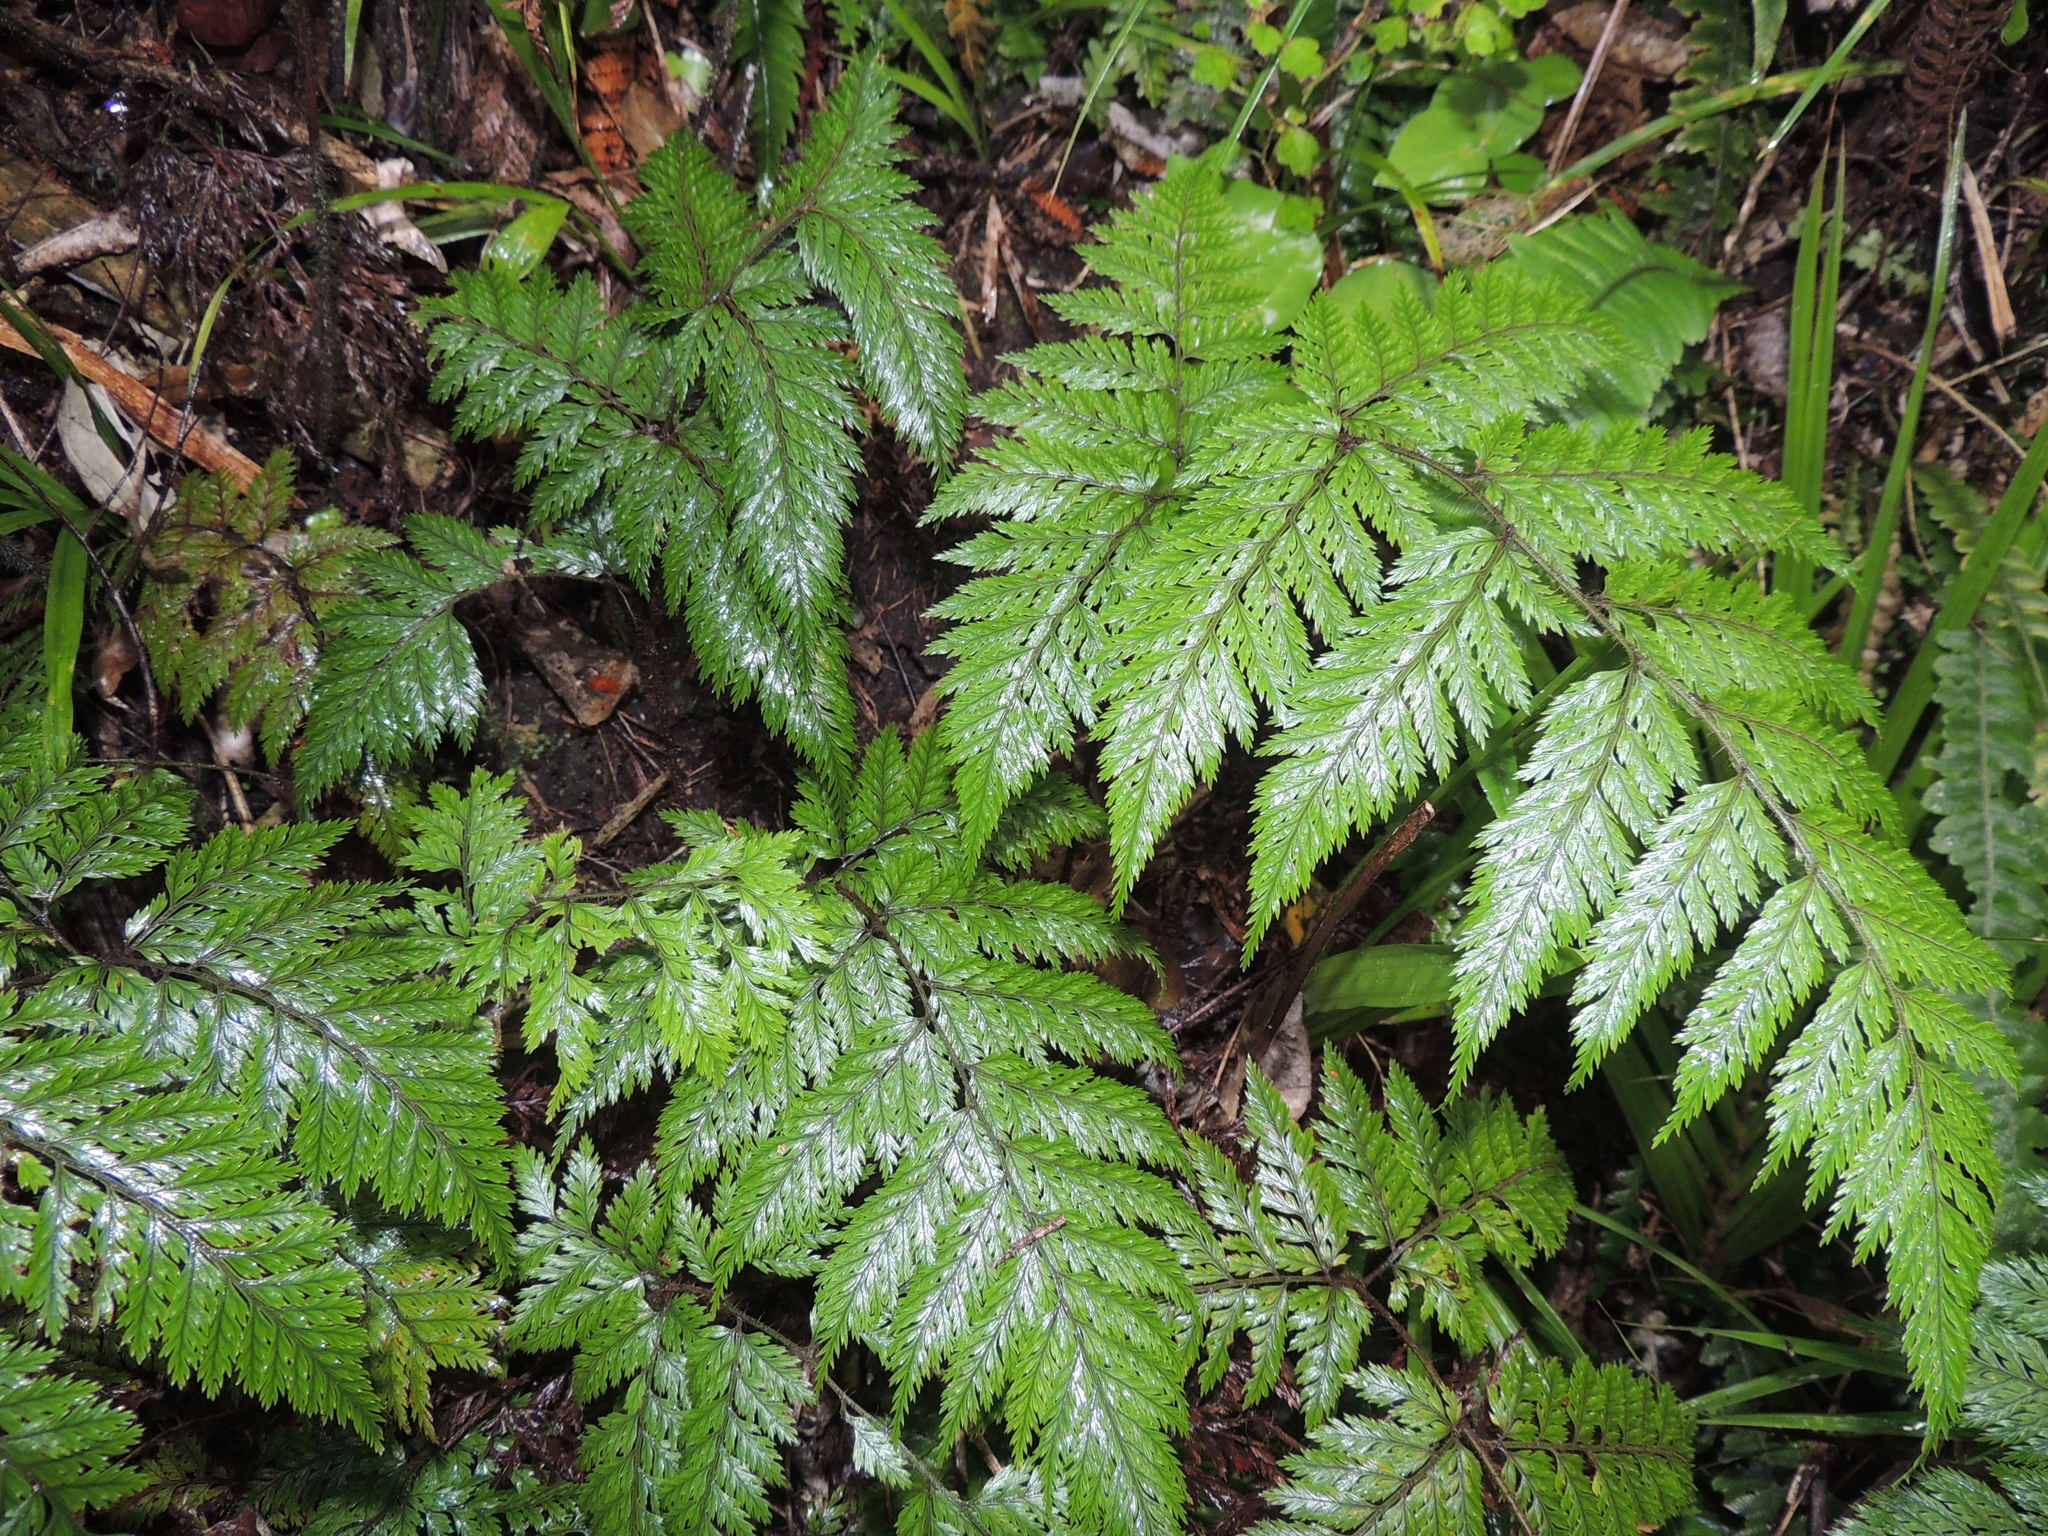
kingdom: Plantae
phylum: Tracheophyta
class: Polypodiopsida
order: Polypodiales
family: Dryopteridaceae
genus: Lastreopsis
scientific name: Lastreopsis hispida
